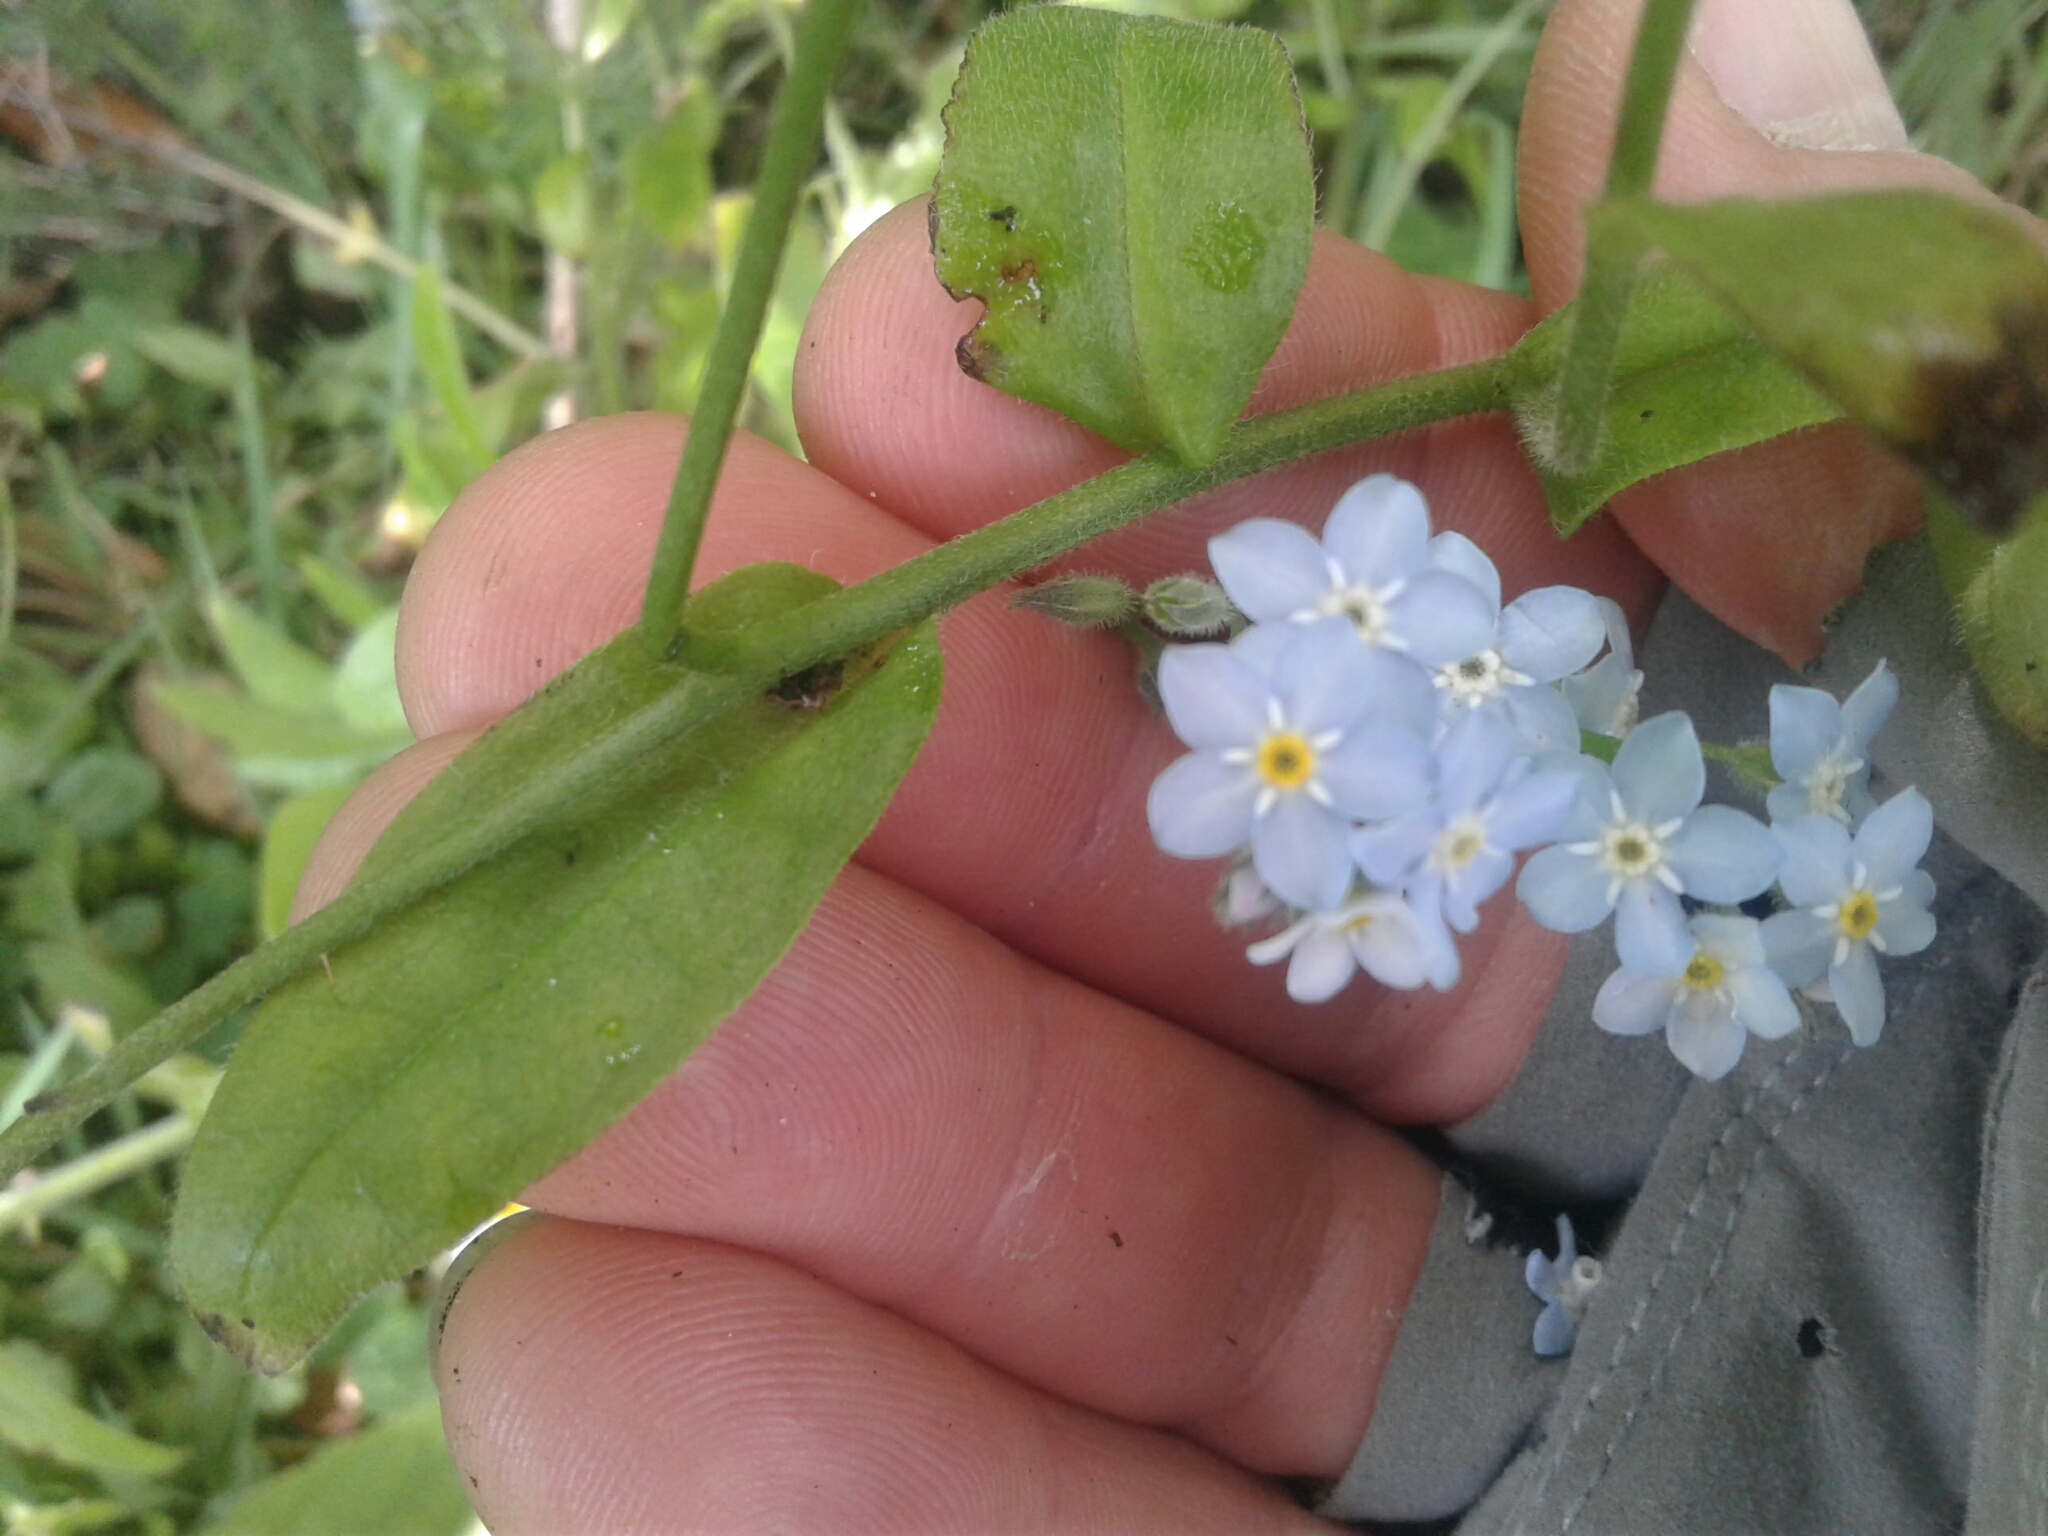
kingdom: Plantae
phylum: Tracheophyta
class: Magnoliopsida
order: Boraginales
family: Boraginaceae
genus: Myosotis
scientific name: Myosotis sylvatica
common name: Wood forget-me-not
